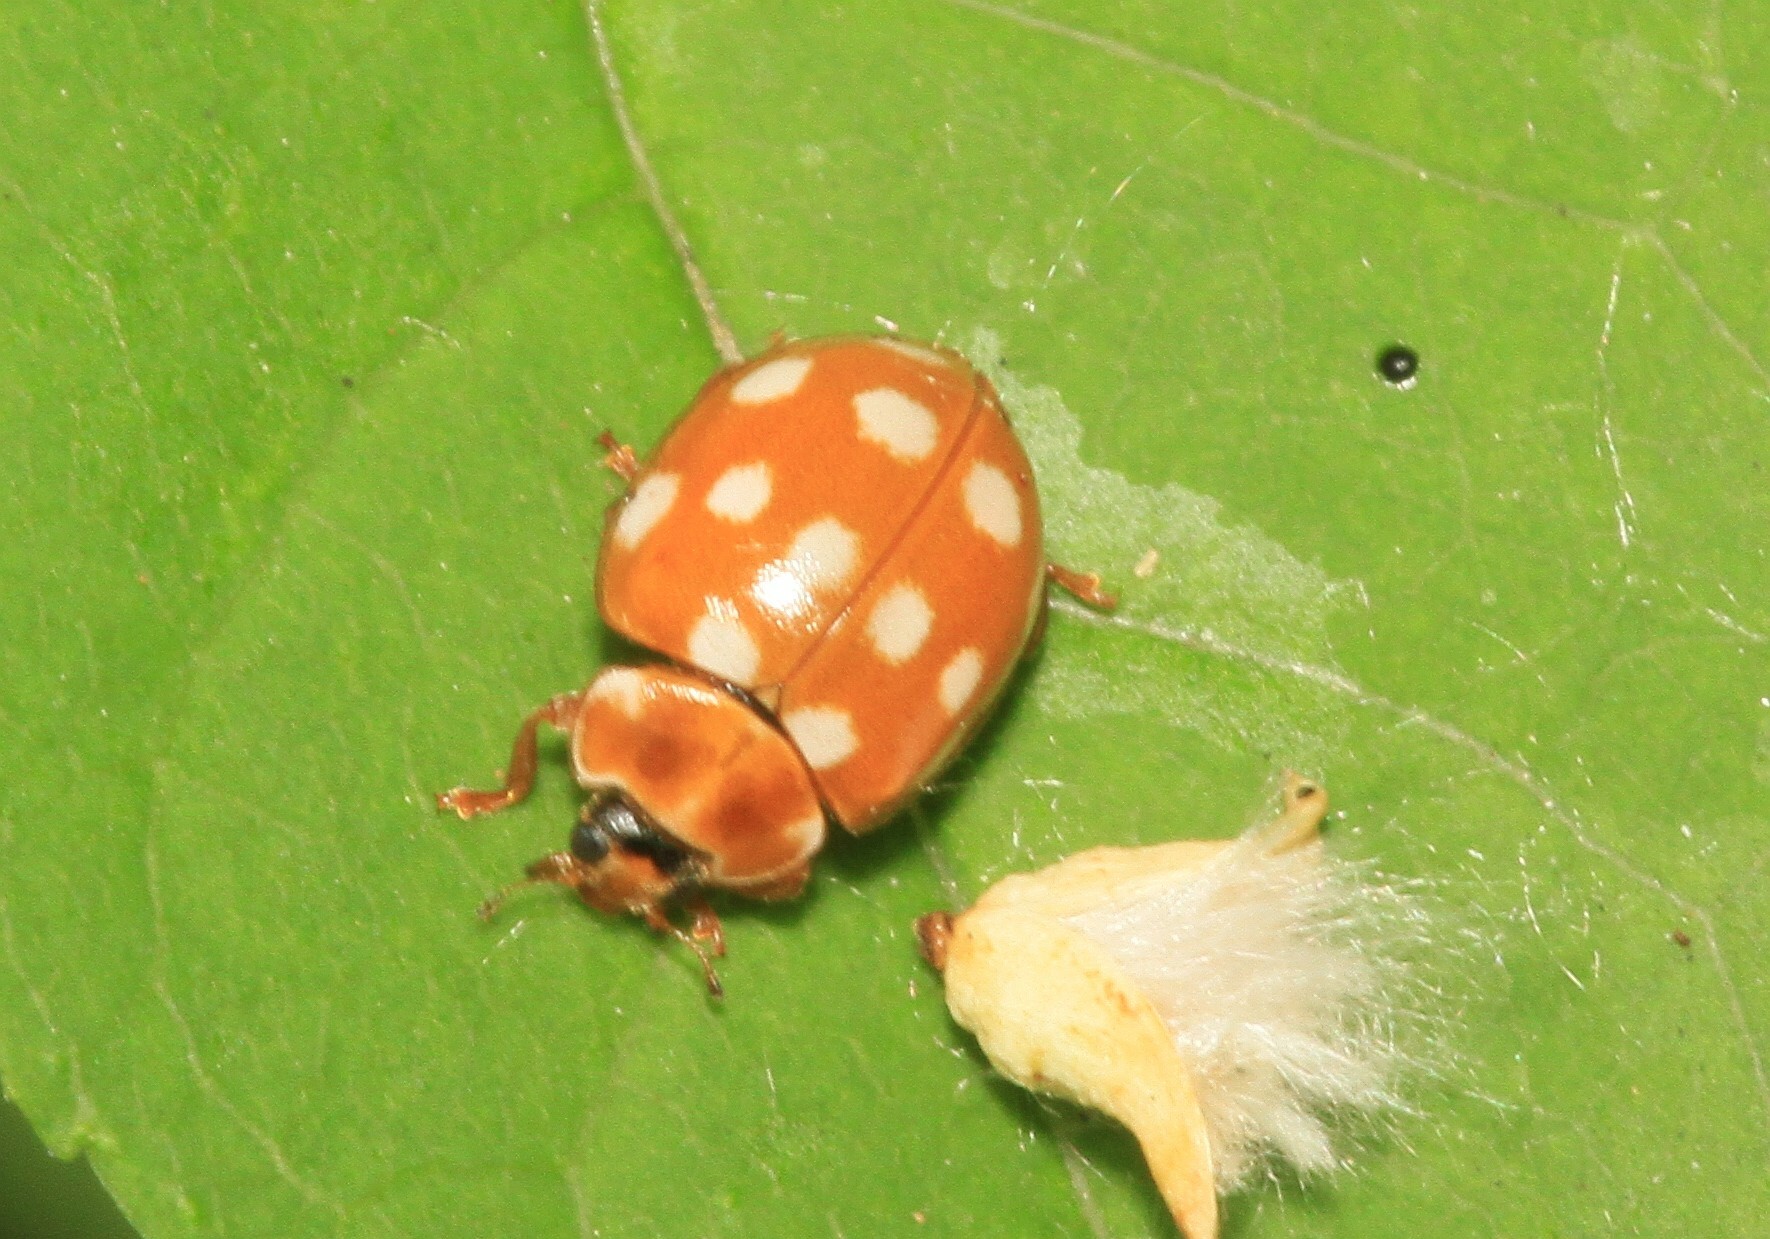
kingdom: Animalia
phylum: Arthropoda
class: Insecta
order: Coleoptera
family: Coccinellidae
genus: Calvia
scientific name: Calvia quatuordecimguttata
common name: Cream-spot ladybird
